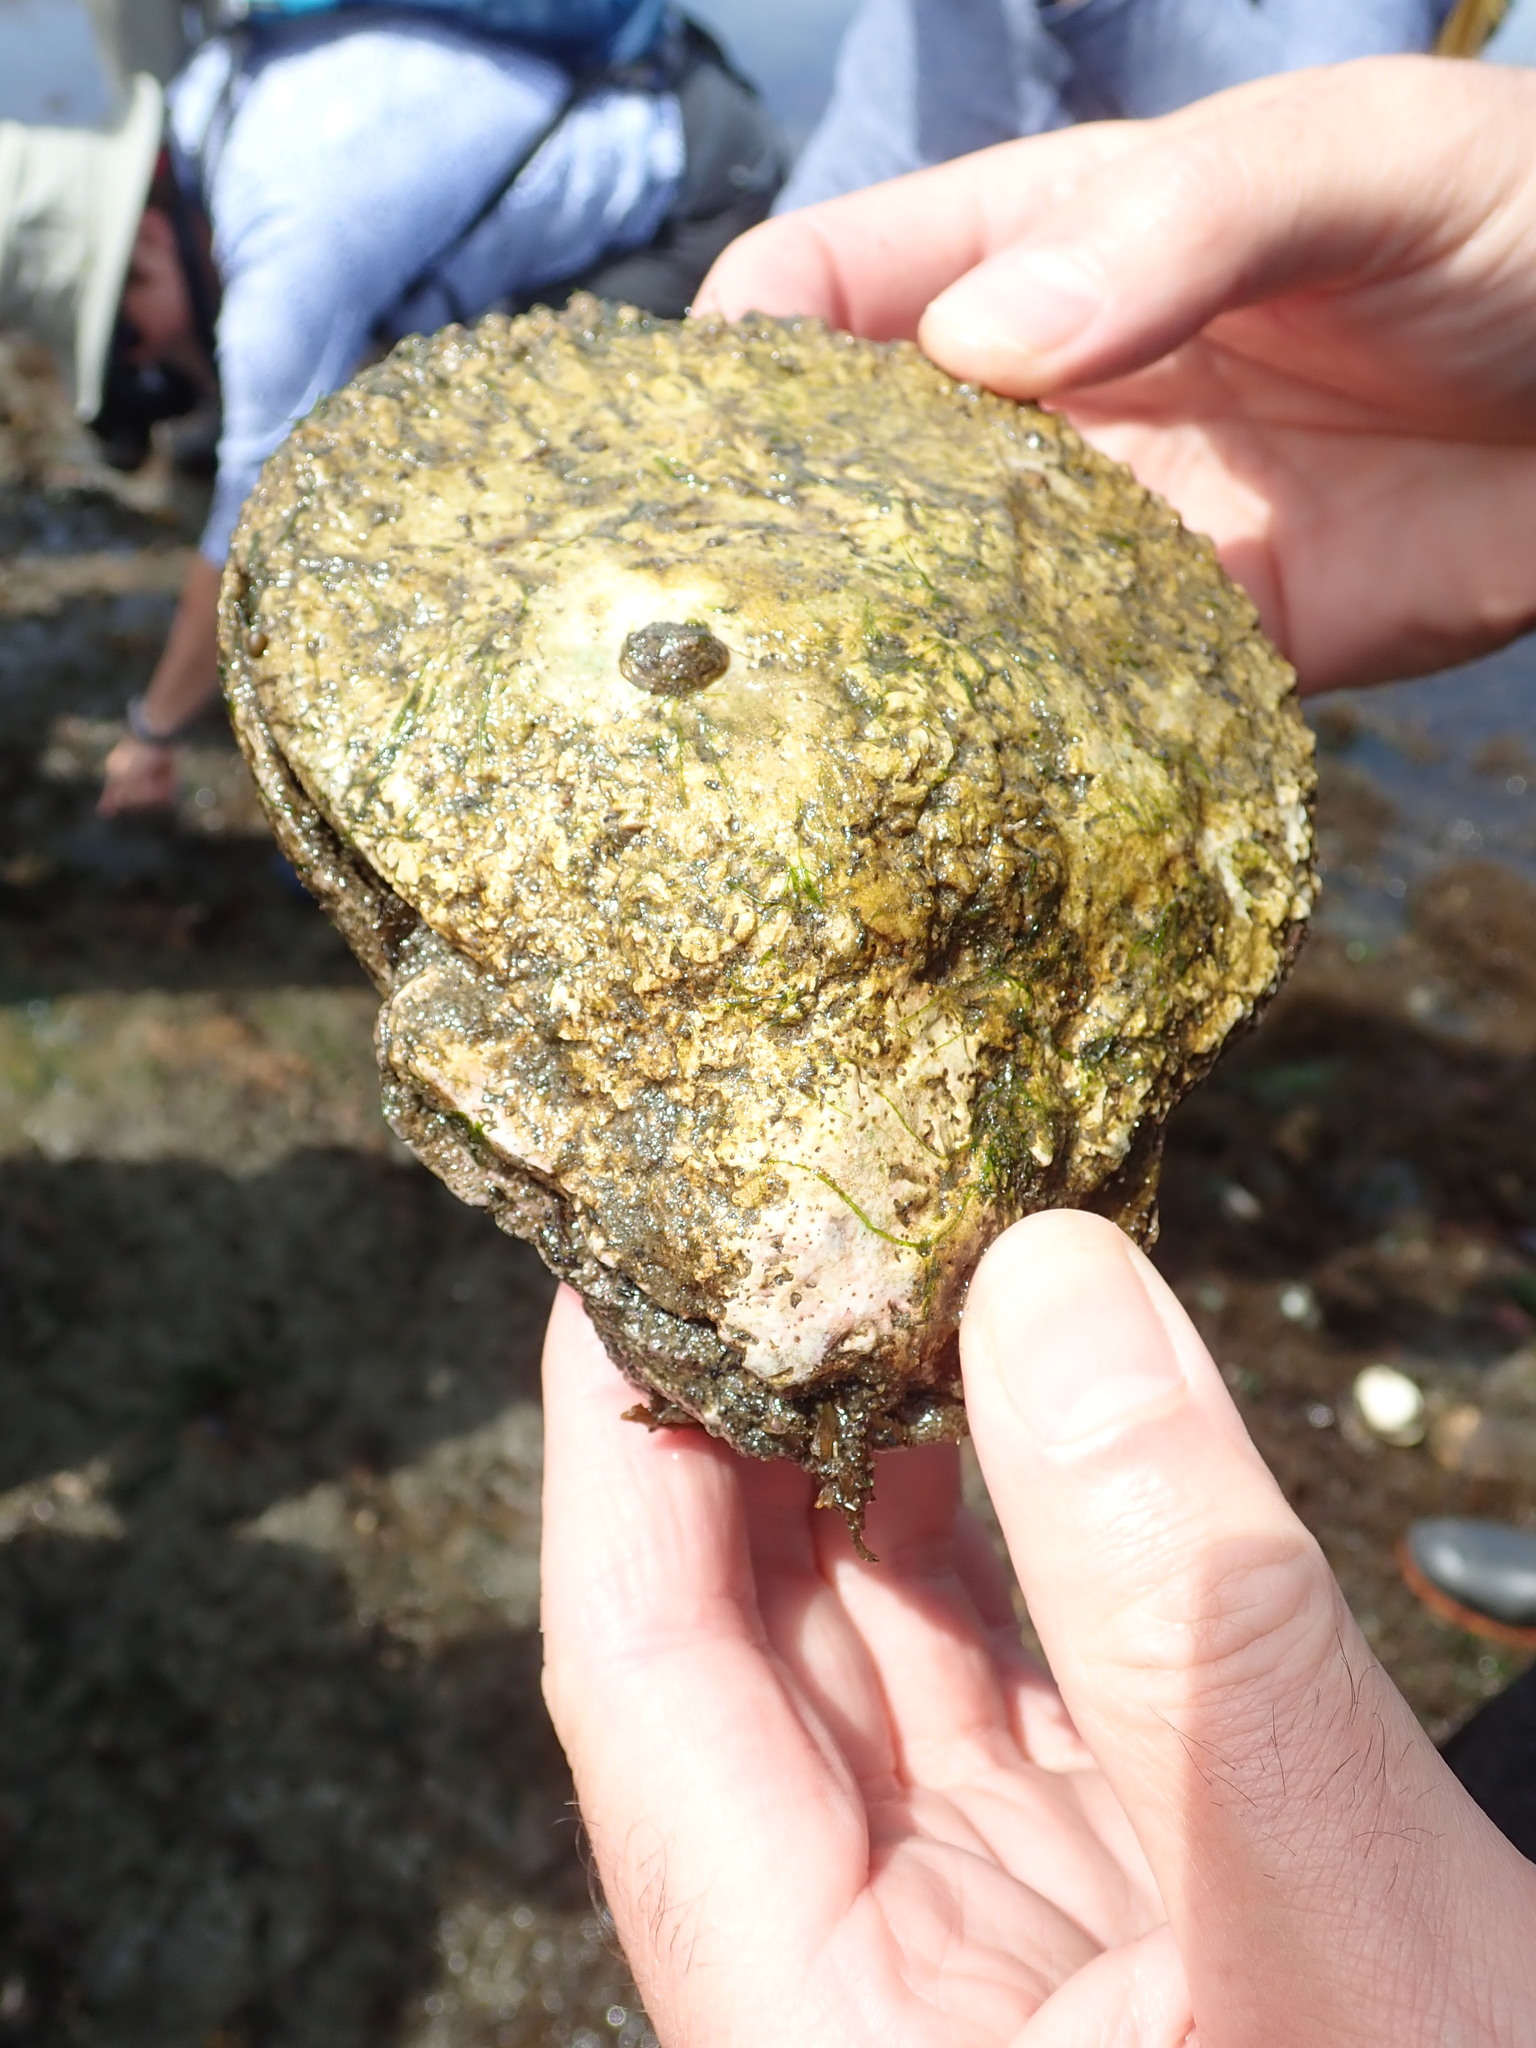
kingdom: Animalia
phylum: Mollusca
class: Bivalvia
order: Pectinida
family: Pectinidae
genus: Crassadoma
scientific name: Crassadoma gigantea
